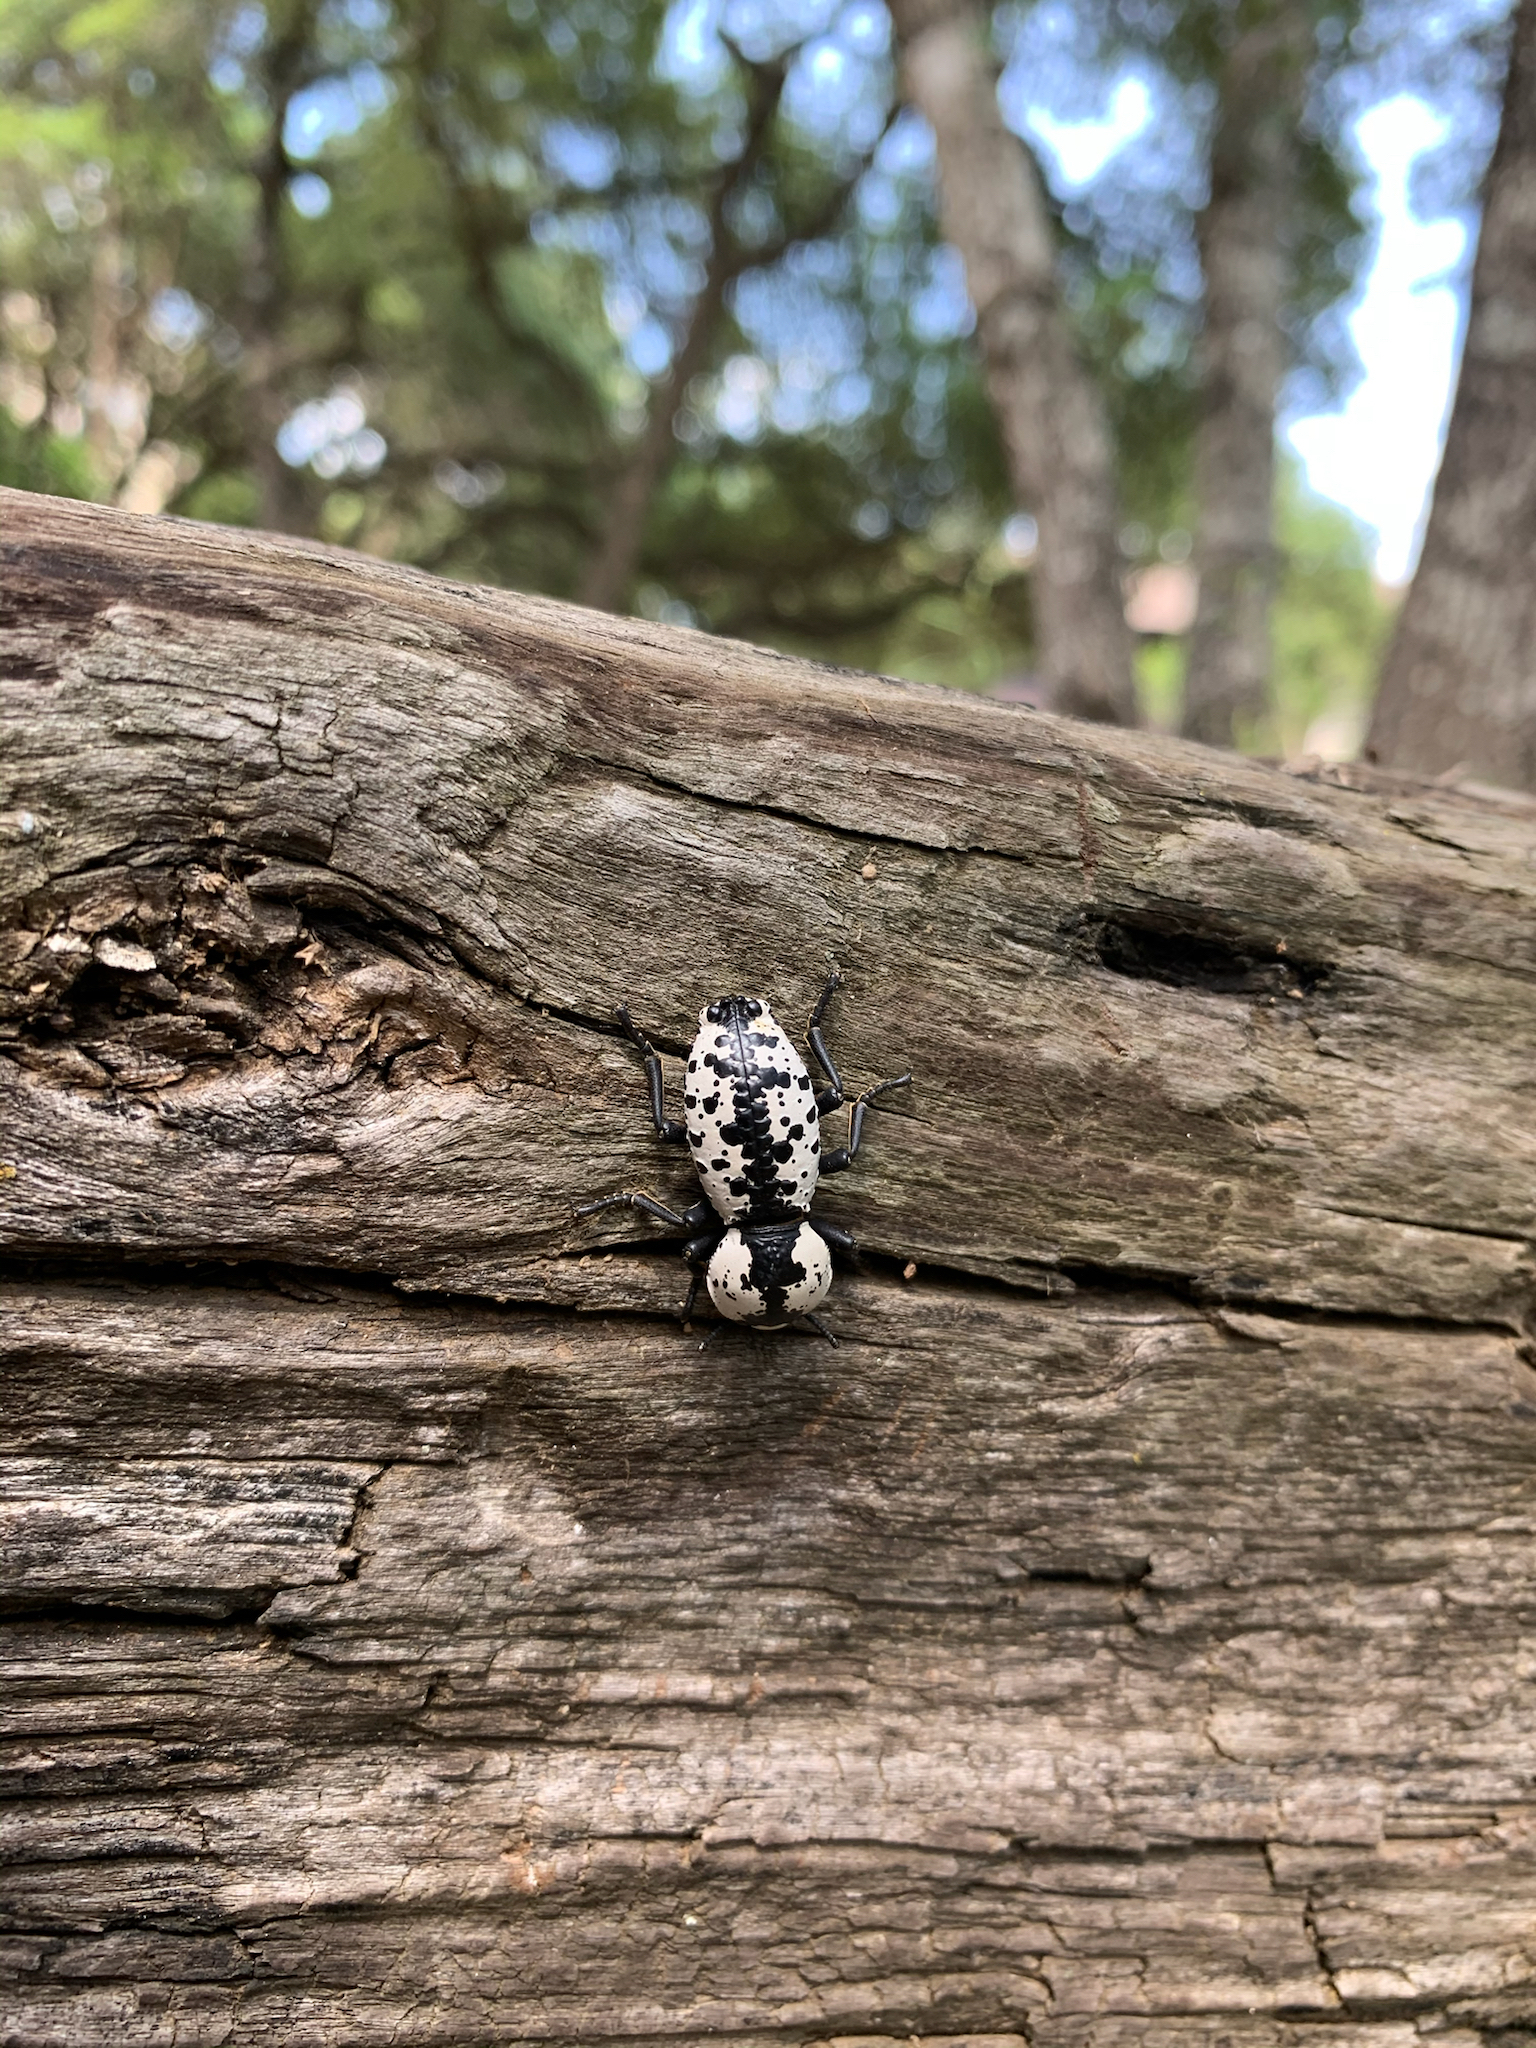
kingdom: Animalia
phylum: Arthropoda
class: Insecta
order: Coleoptera
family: Zopheridae
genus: Zopherus
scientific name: Zopherus nodulosus
